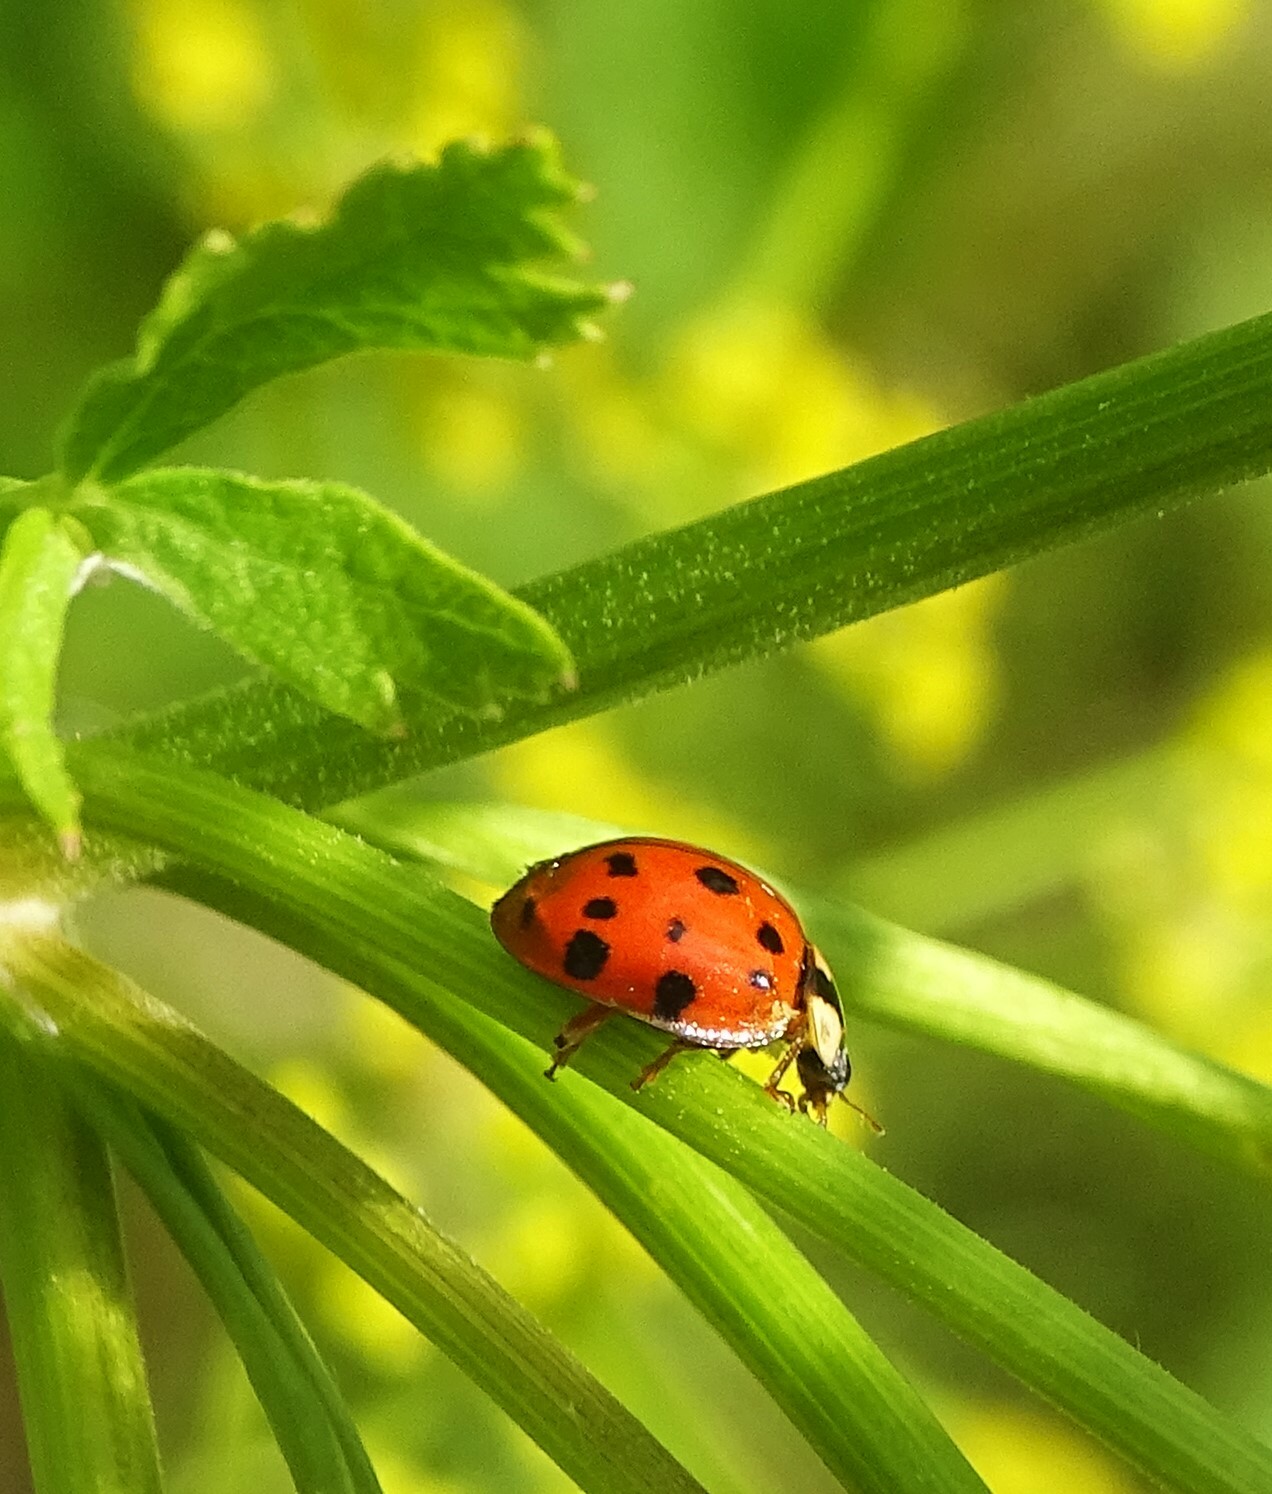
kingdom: Fungi
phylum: Ascomycota
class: Laboulbeniomycetes
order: Laboulbeniales
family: Laboulbeniaceae
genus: Hesperomyces
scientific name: Hesperomyces harmoniae
